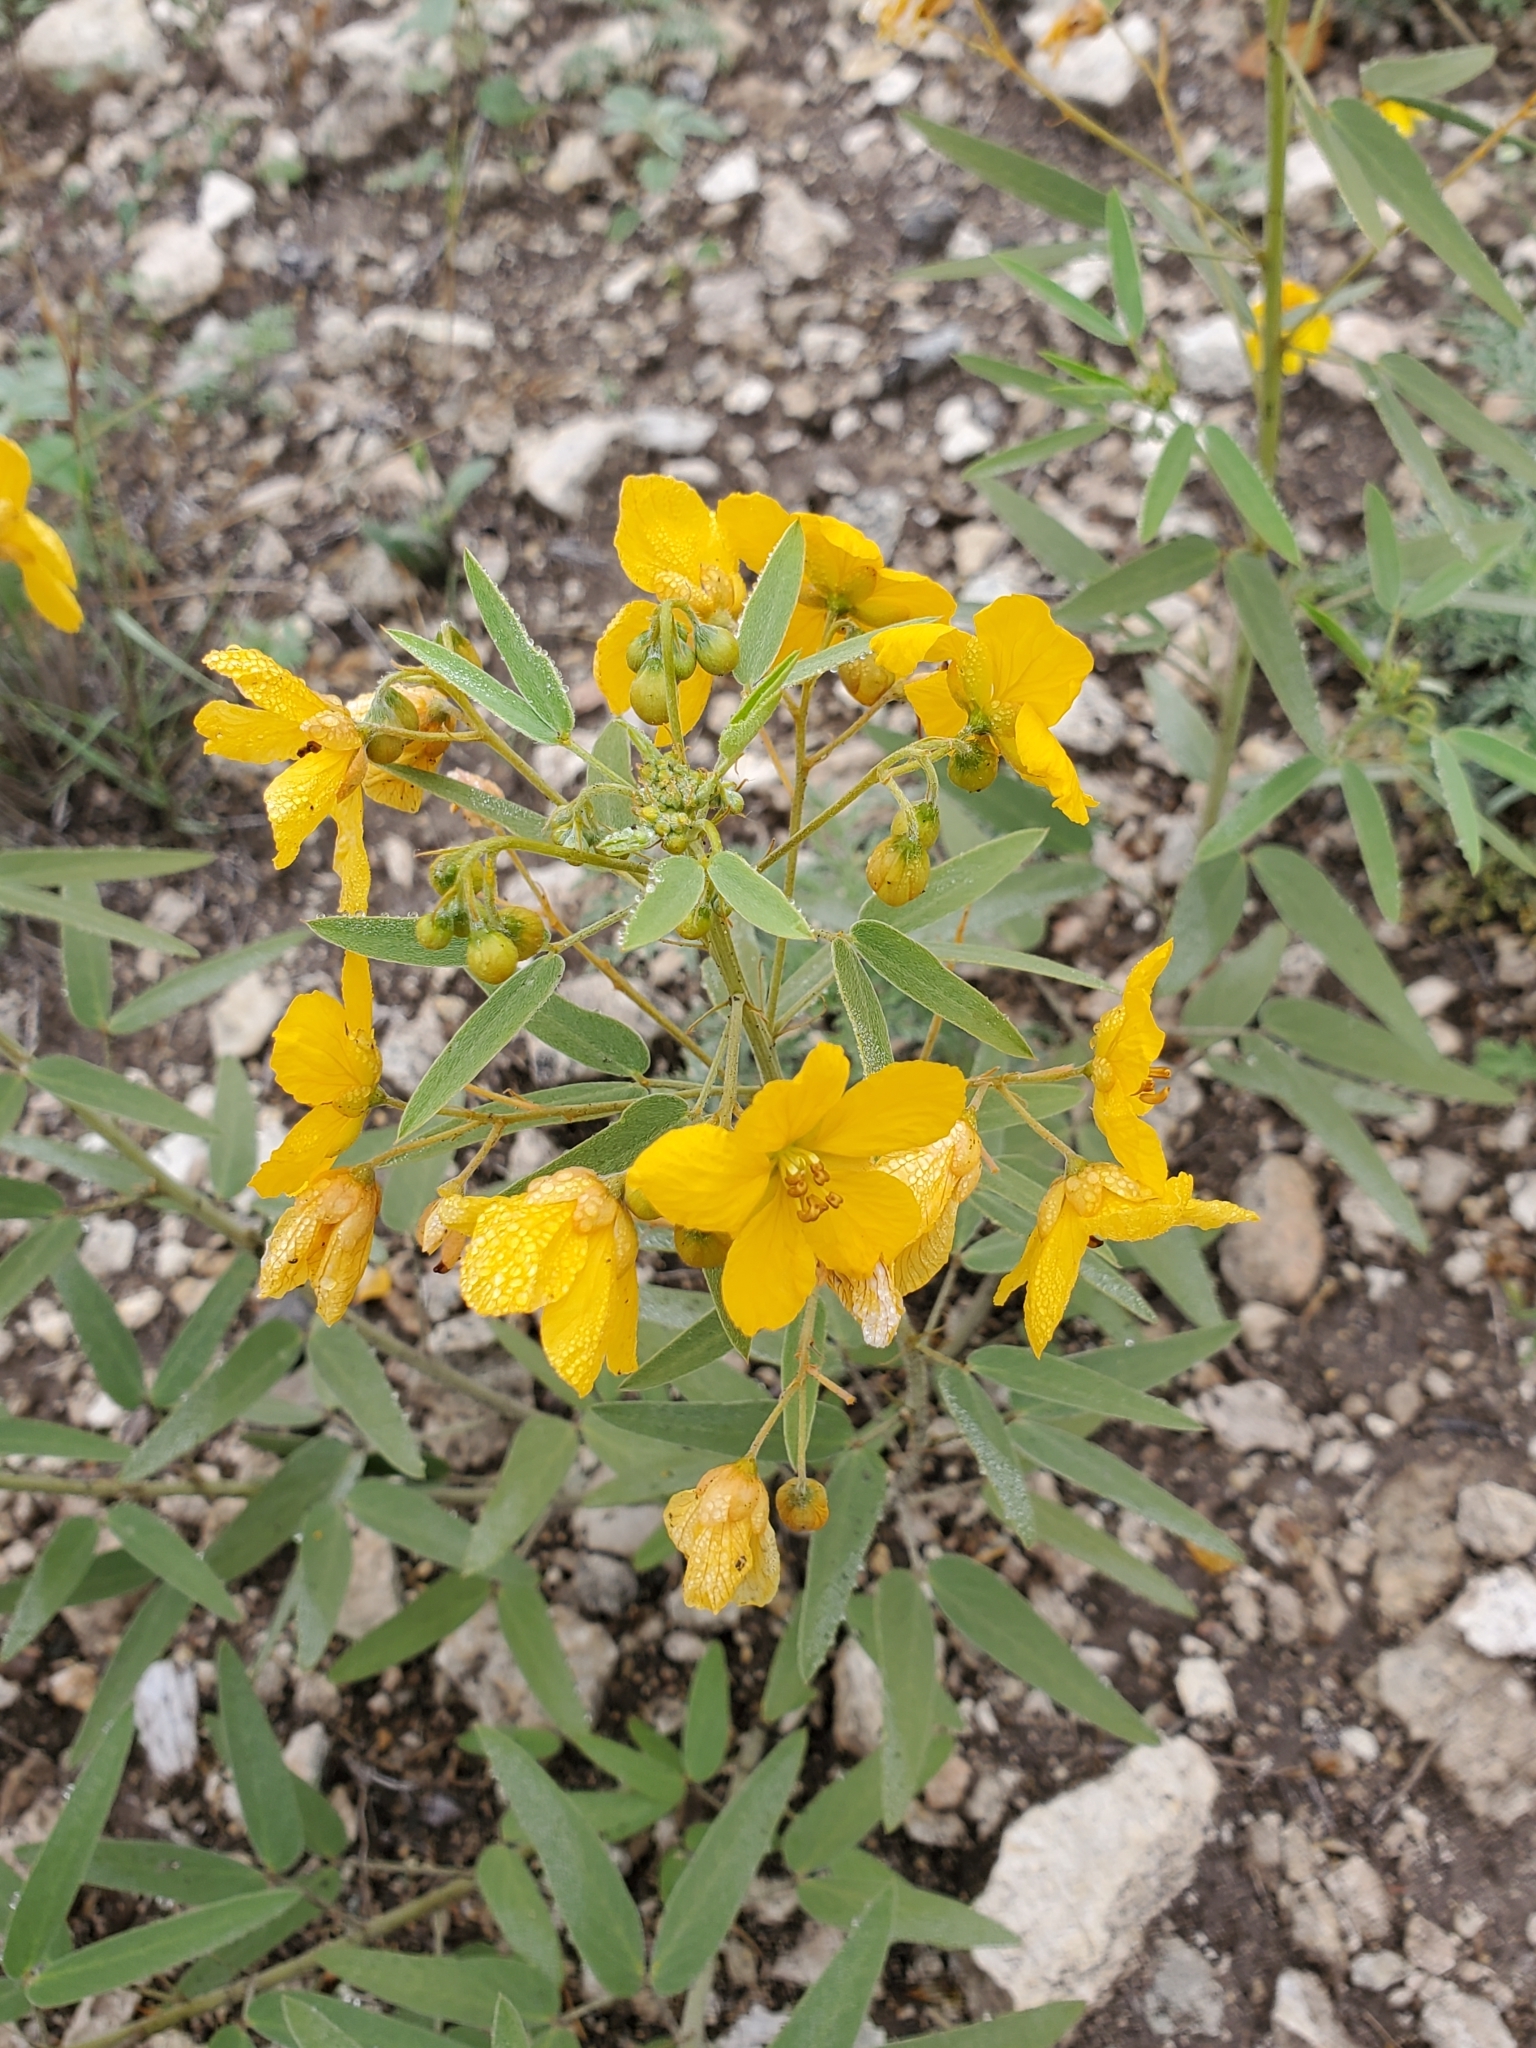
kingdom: Plantae
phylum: Tracheophyta
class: Magnoliopsida
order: Fabales
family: Fabaceae
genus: Senna
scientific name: Senna roemeriana
